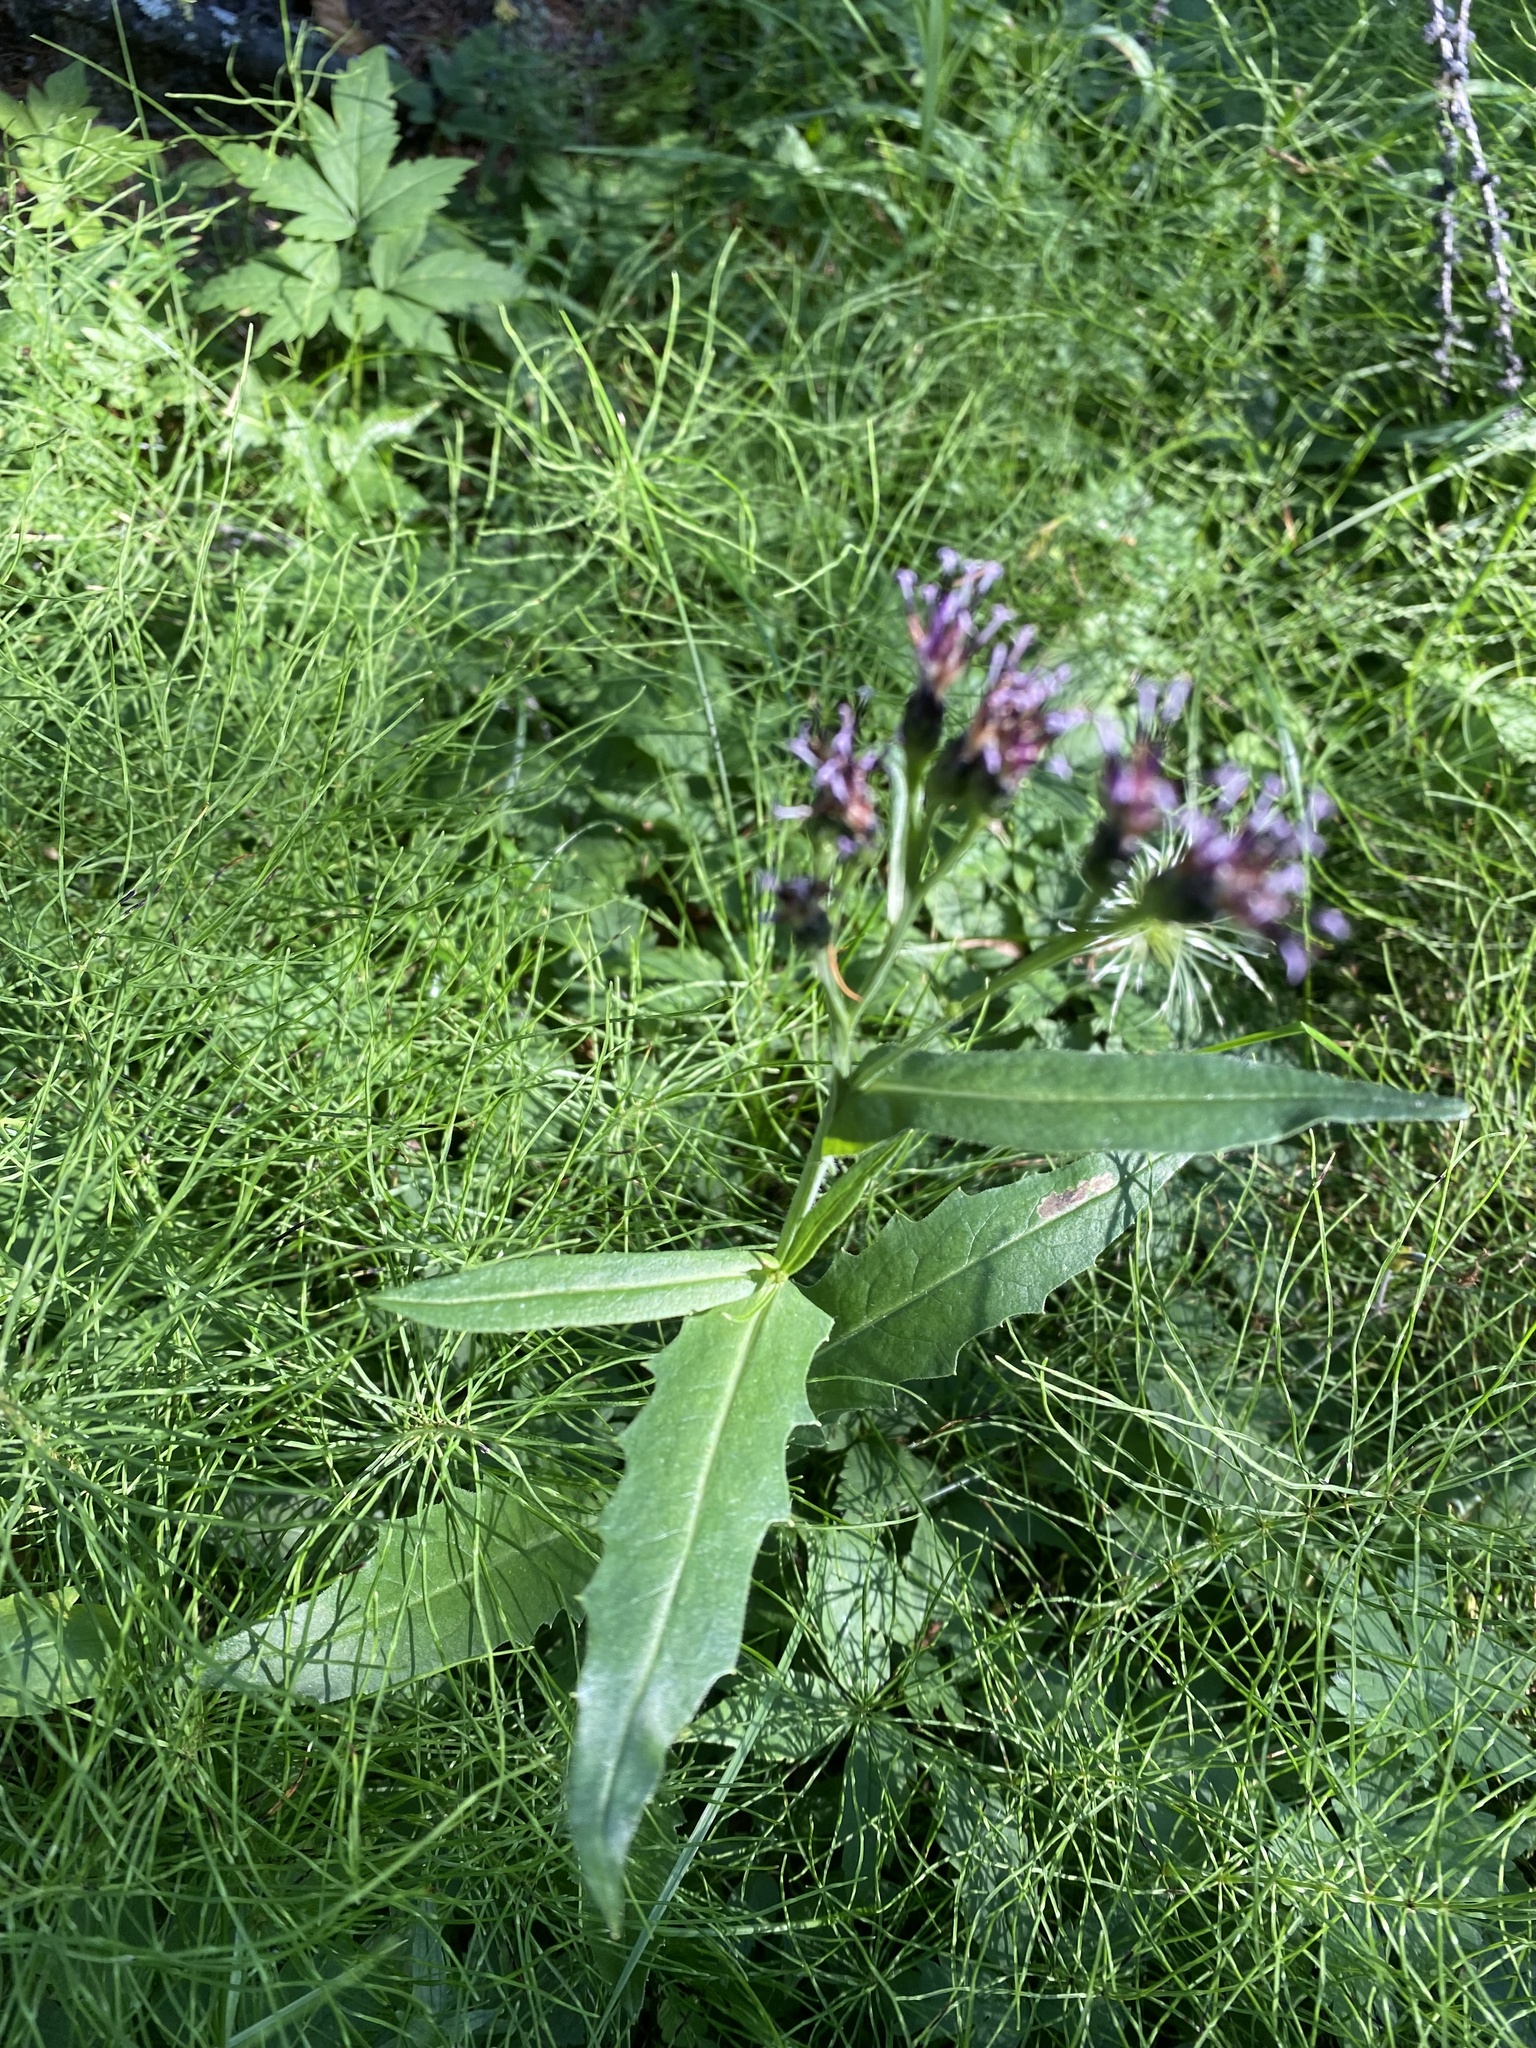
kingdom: Plantae
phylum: Tracheophyta
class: Magnoliopsida
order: Asterales
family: Asteraceae
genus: Saussurea
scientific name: Saussurea parviflora
